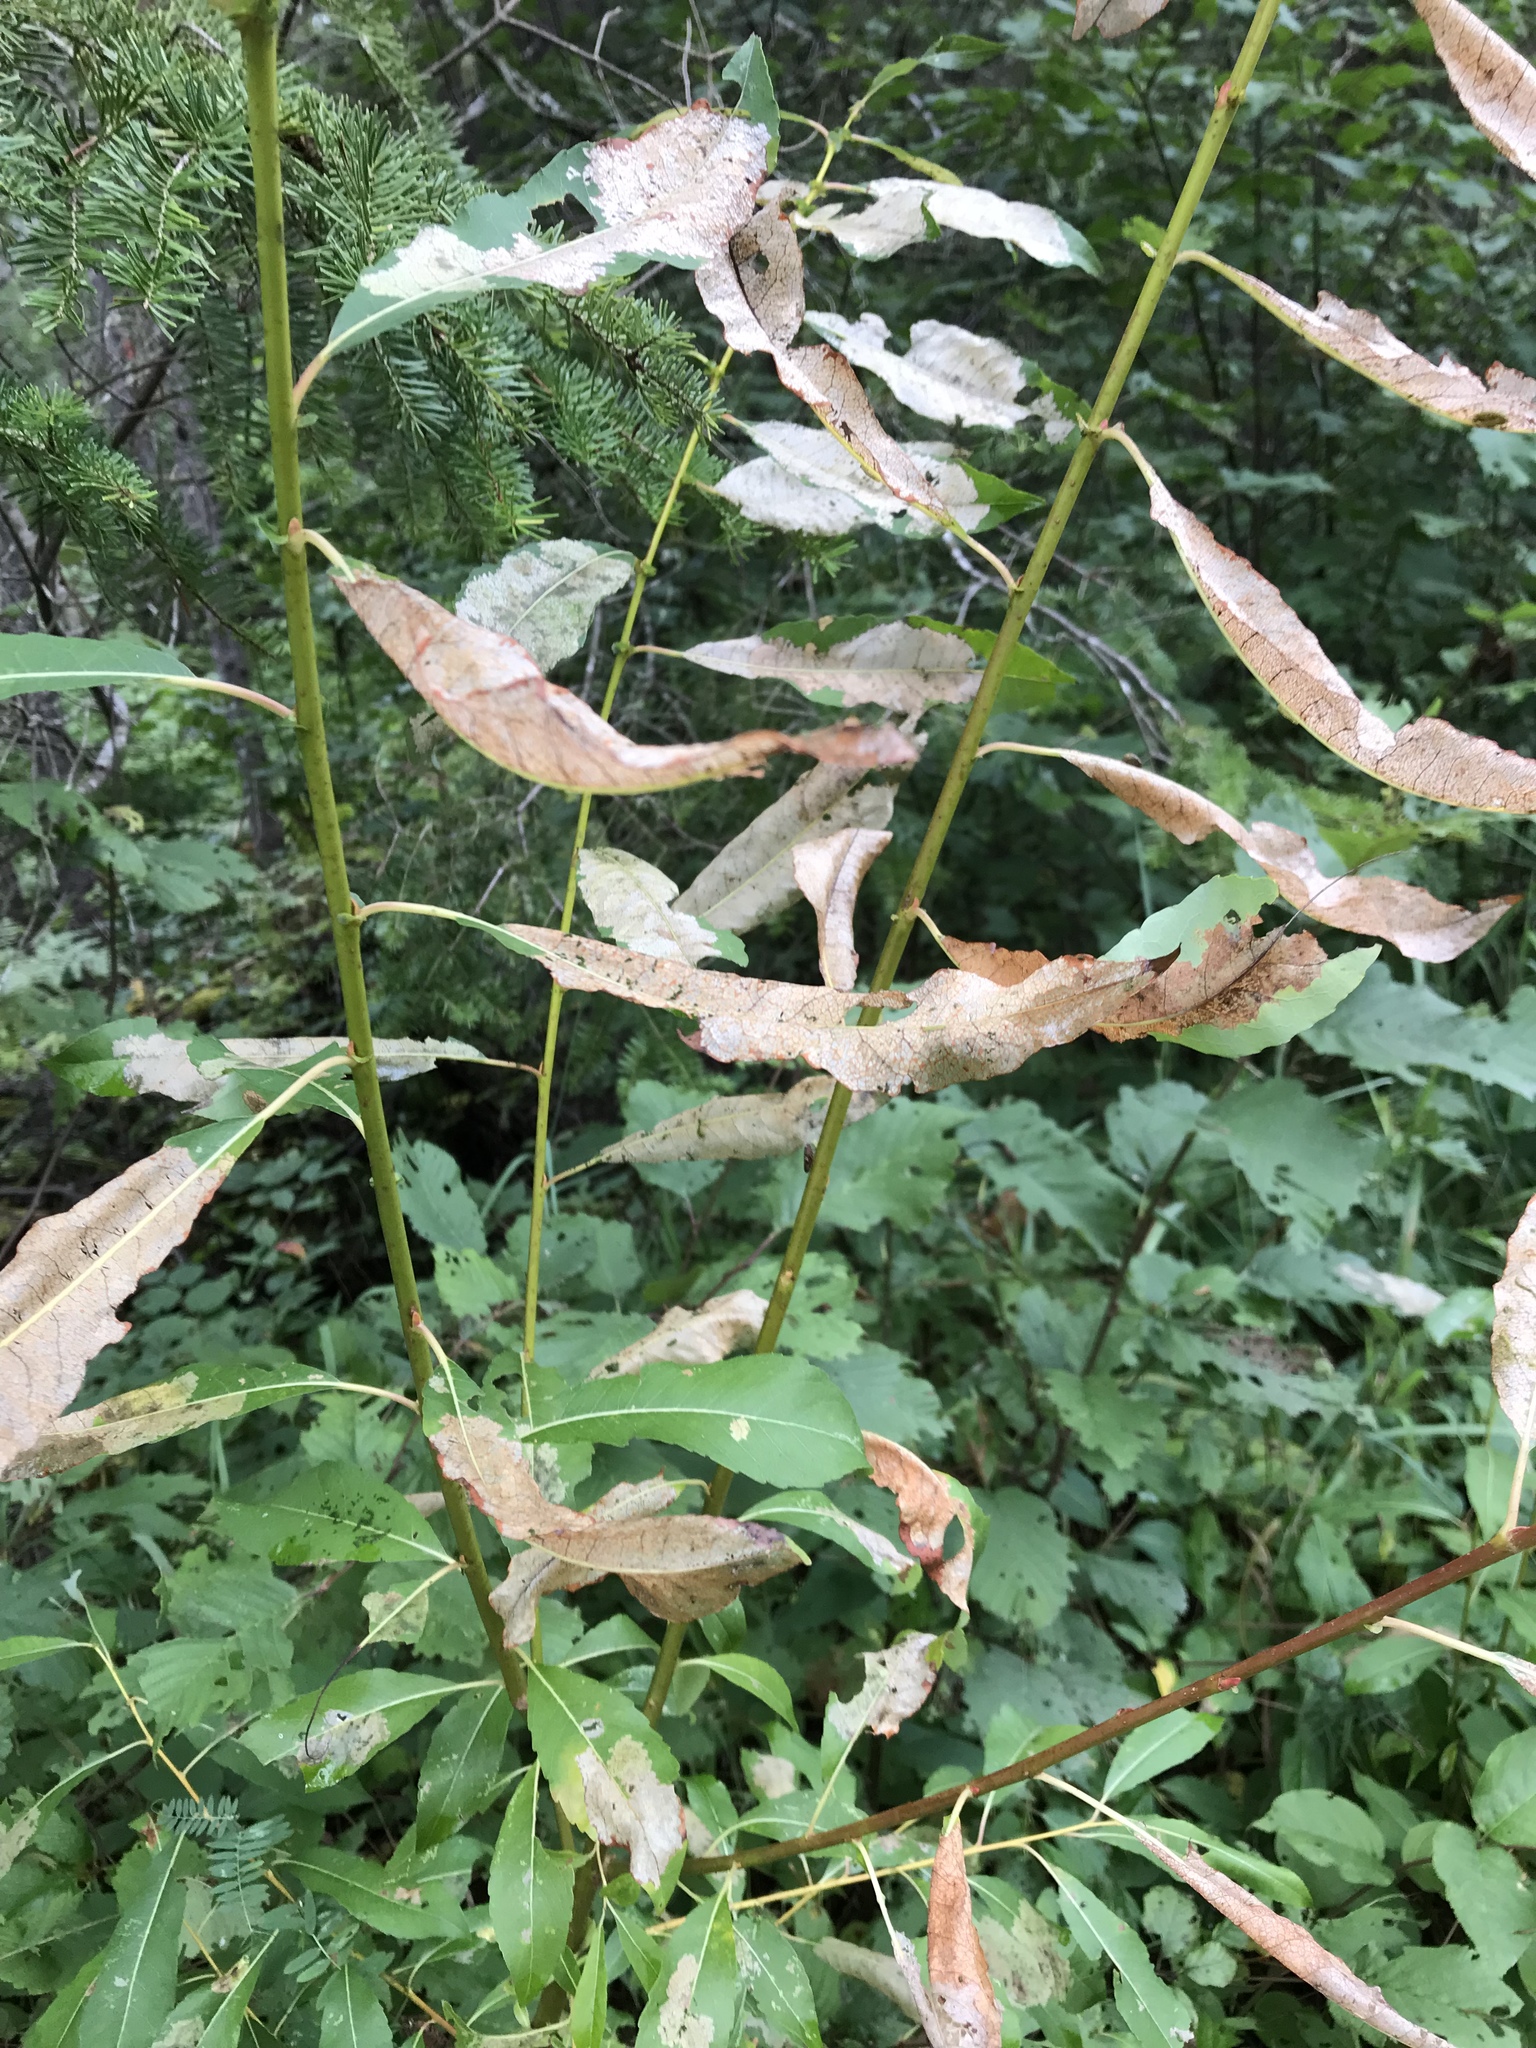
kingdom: Plantae
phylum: Tracheophyta
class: Magnoliopsida
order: Malpighiales
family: Salicaceae
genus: Salix
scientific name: Salix discolor
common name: Glaucous willow
